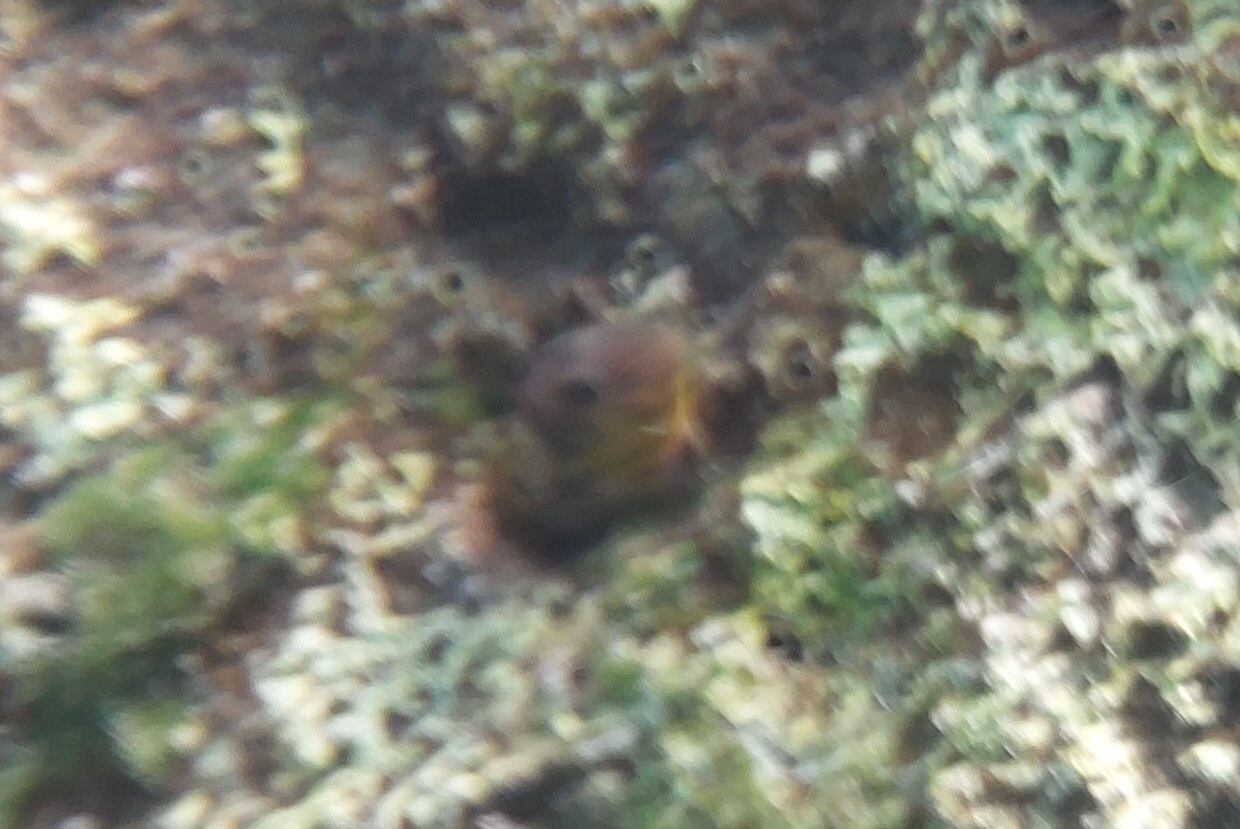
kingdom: Animalia
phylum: Chordata
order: Perciformes
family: Blenniidae
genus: Microlipophrys
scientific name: Microlipophrys canevae
